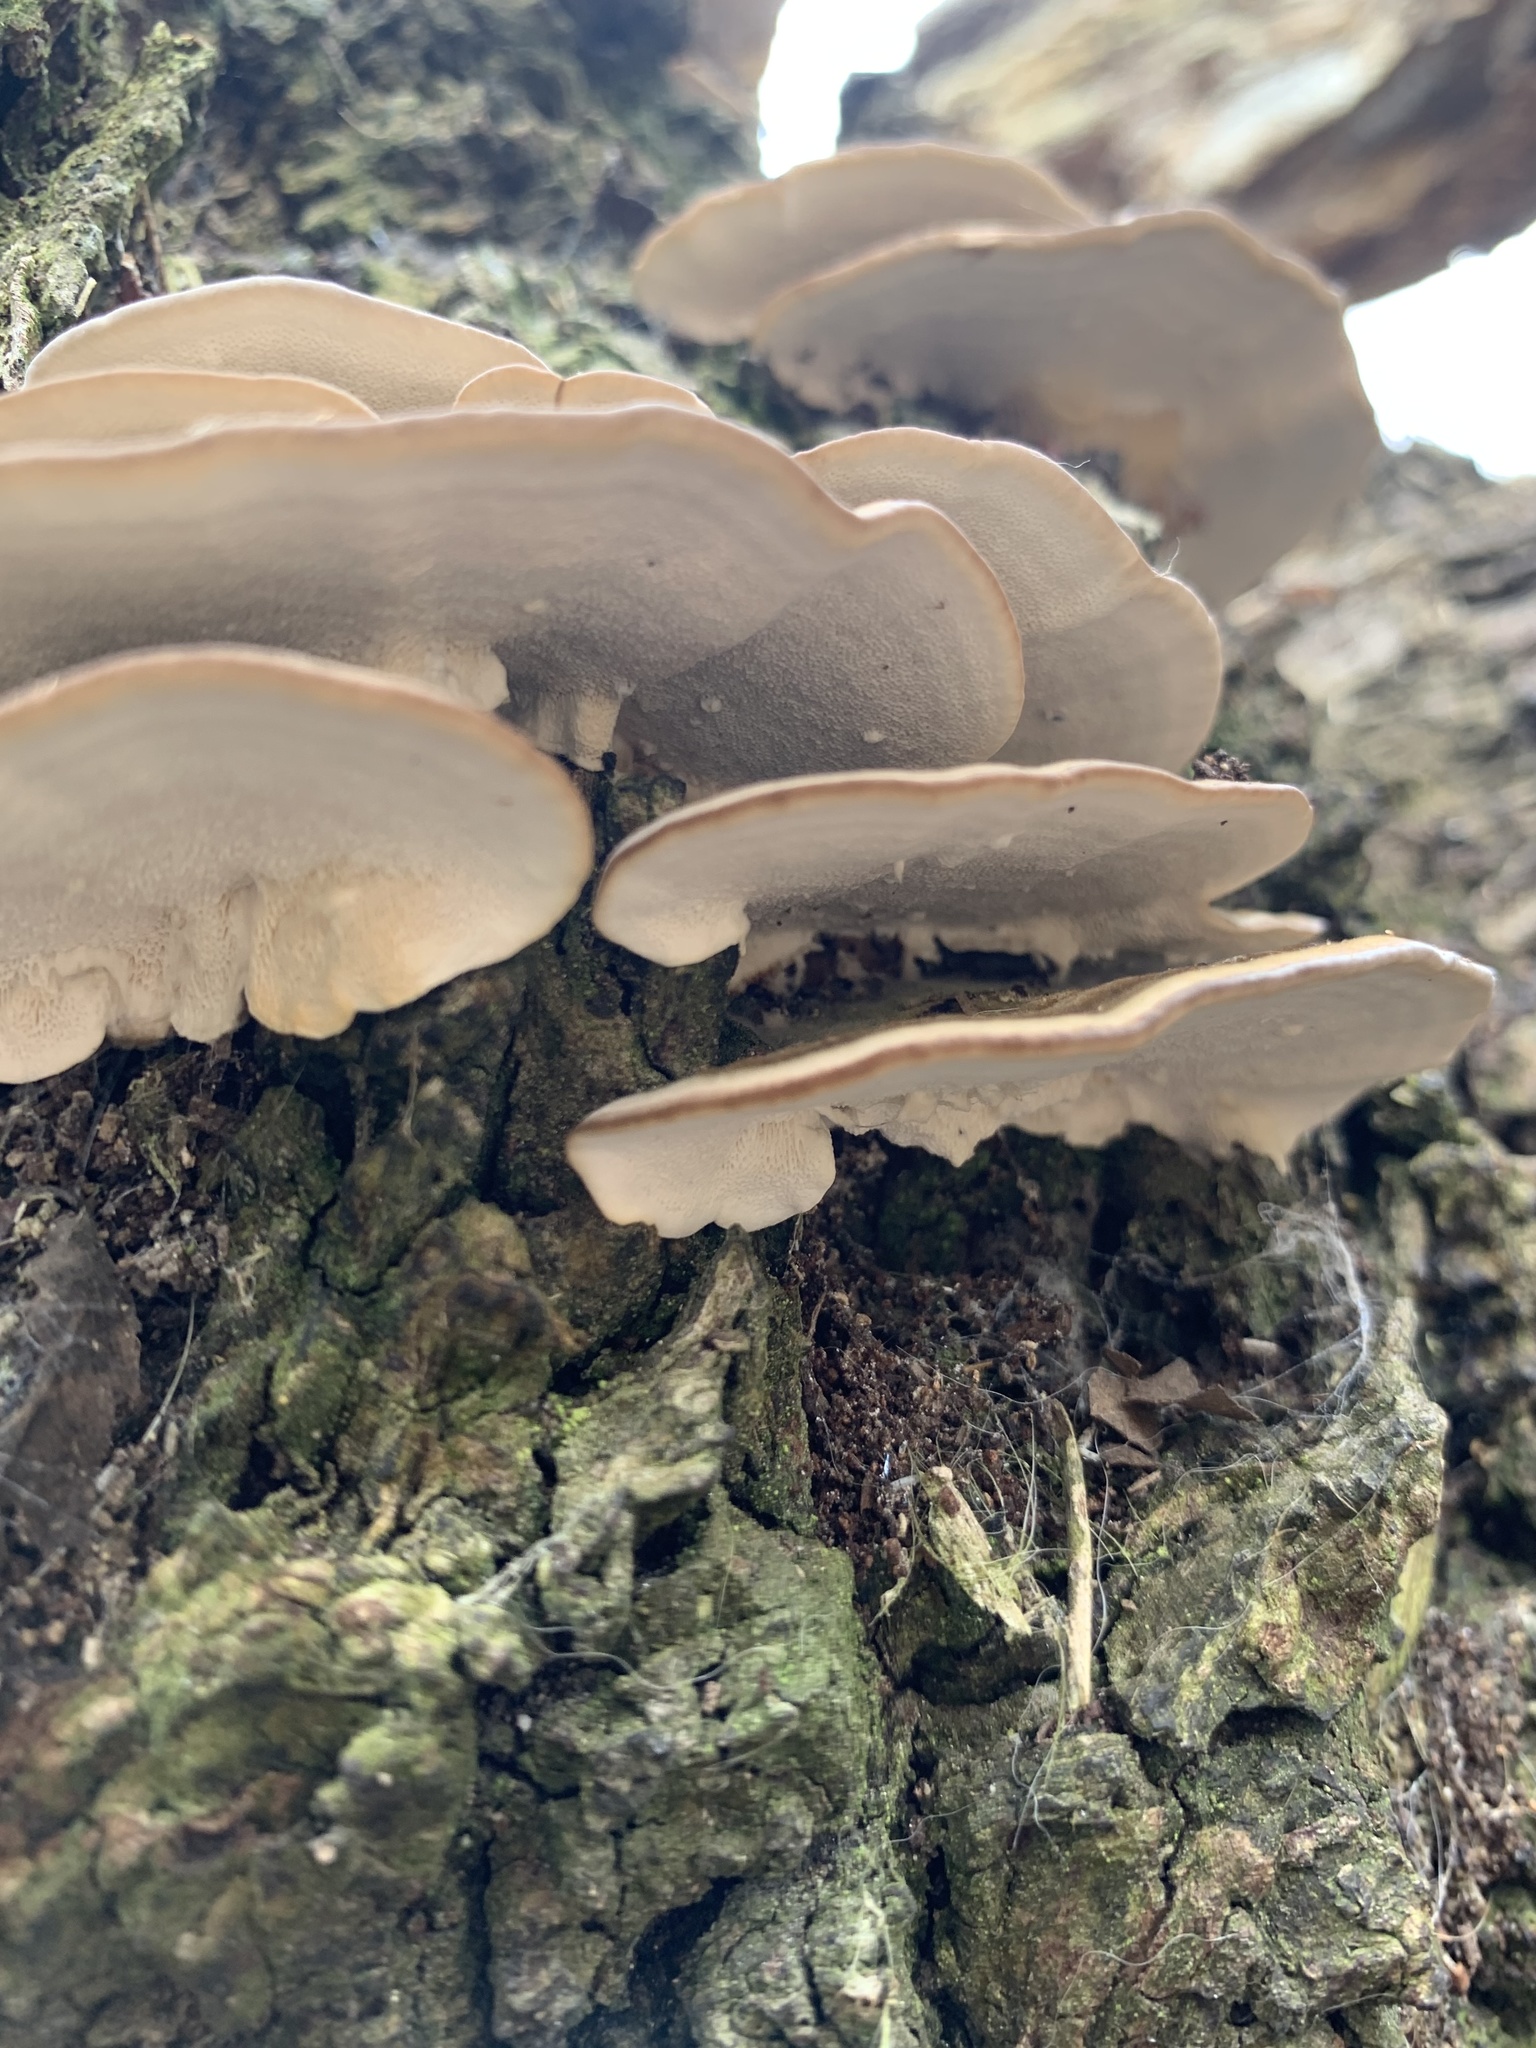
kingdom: Fungi
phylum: Basidiomycota
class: Agaricomycetes
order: Polyporales
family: Polyporaceae
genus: Trametes
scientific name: Trametes versicolor
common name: Turkeytail
